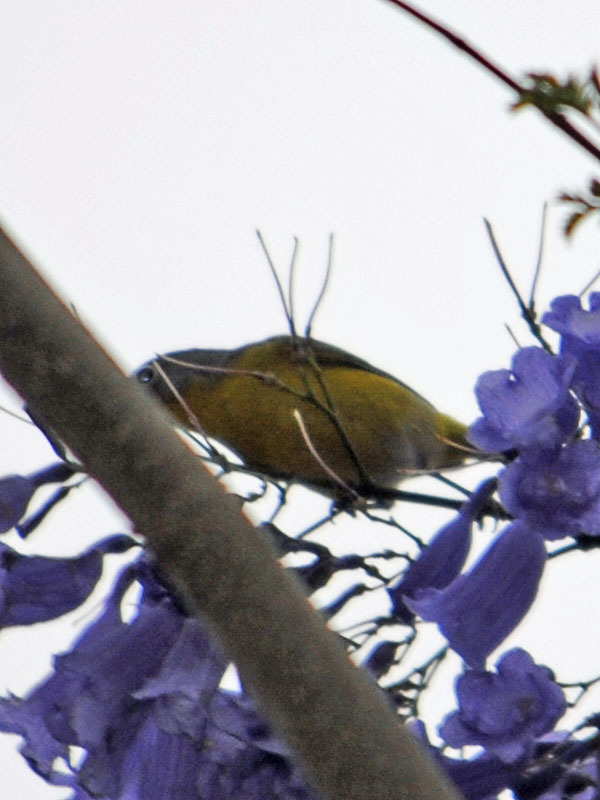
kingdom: Animalia
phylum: Chordata
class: Aves
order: Passeriformes
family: Parulidae
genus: Leiothlypis
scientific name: Leiothlypis ruficapilla
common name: Nashville warbler
